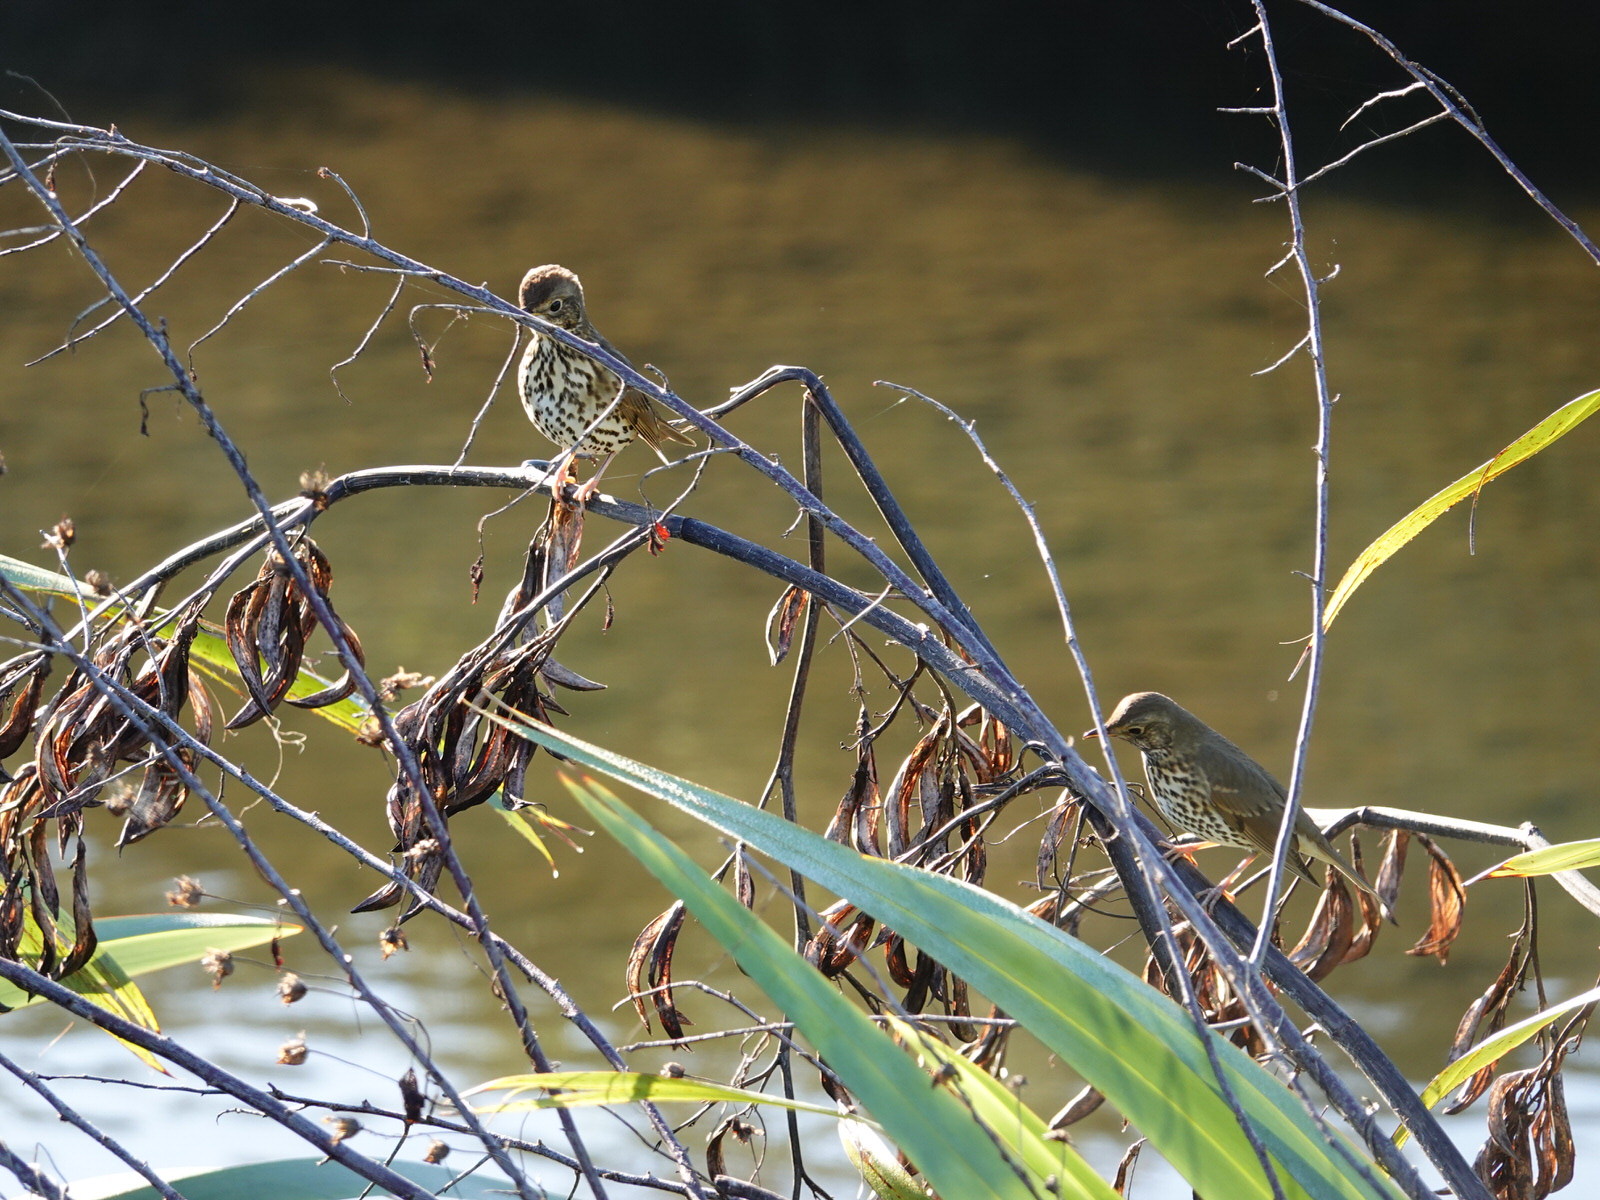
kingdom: Animalia
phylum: Chordata
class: Aves
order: Passeriformes
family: Turdidae
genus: Turdus
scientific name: Turdus philomelos
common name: Song thrush
